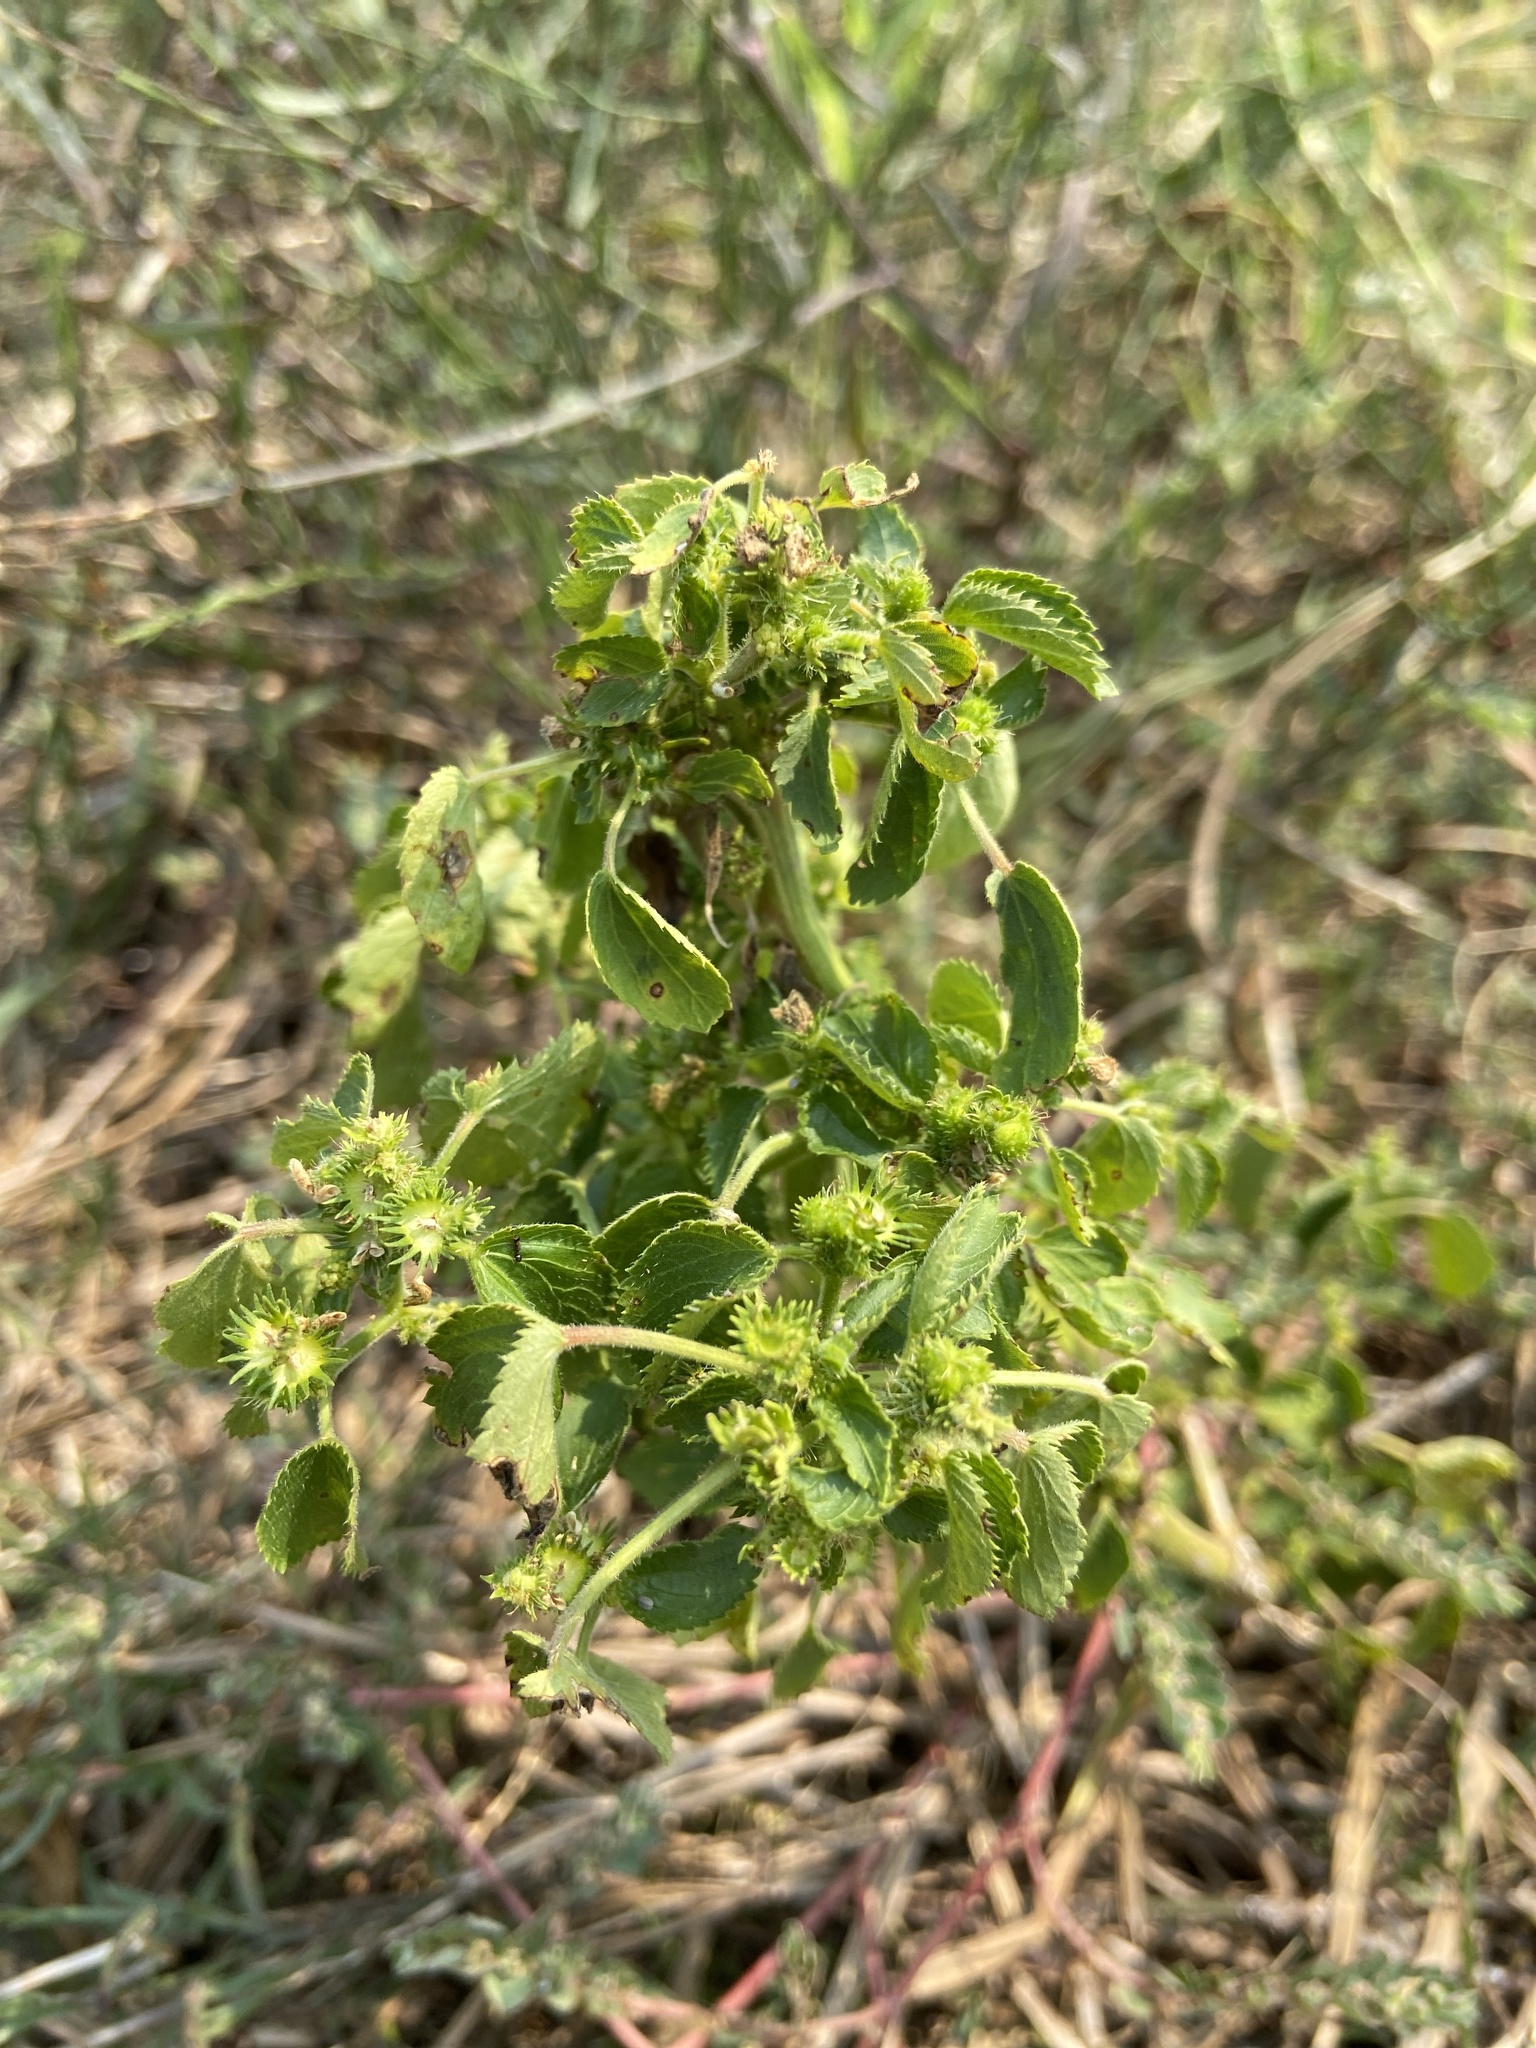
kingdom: Plantae
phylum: Tracheophyta
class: Magnoliopsida
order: Malpighiales
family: Euphorbiaceae
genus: Acalypha
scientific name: Acalypha ostryifolia
